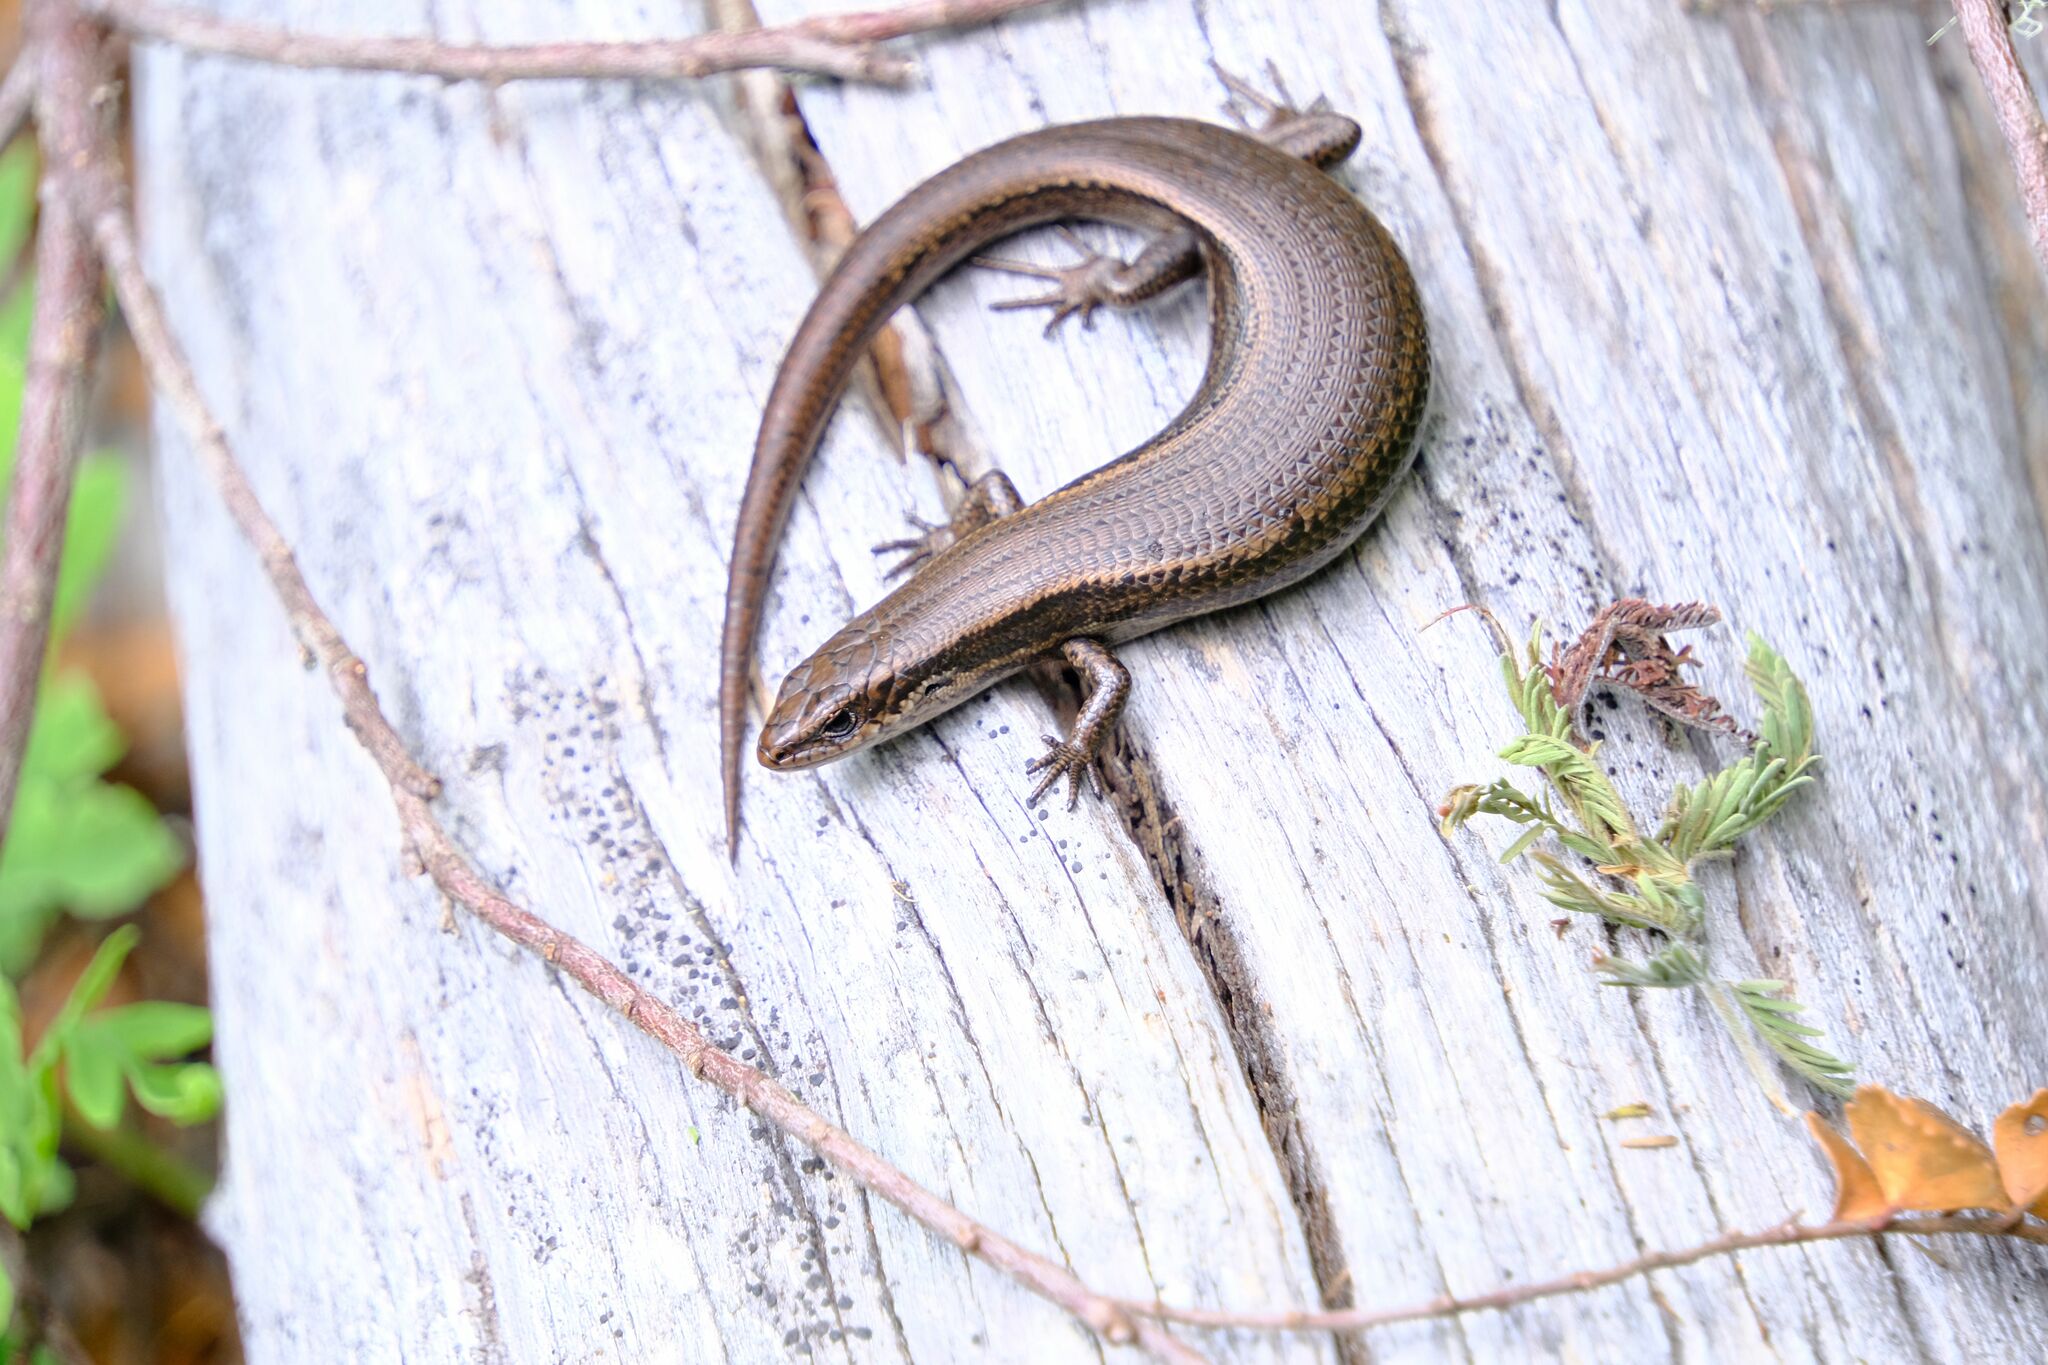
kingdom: Animalia
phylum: Chordata
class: Squamata
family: Scincidae
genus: Carinascincus
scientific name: Carinascincus metallicus
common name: Metallic cool-skink
